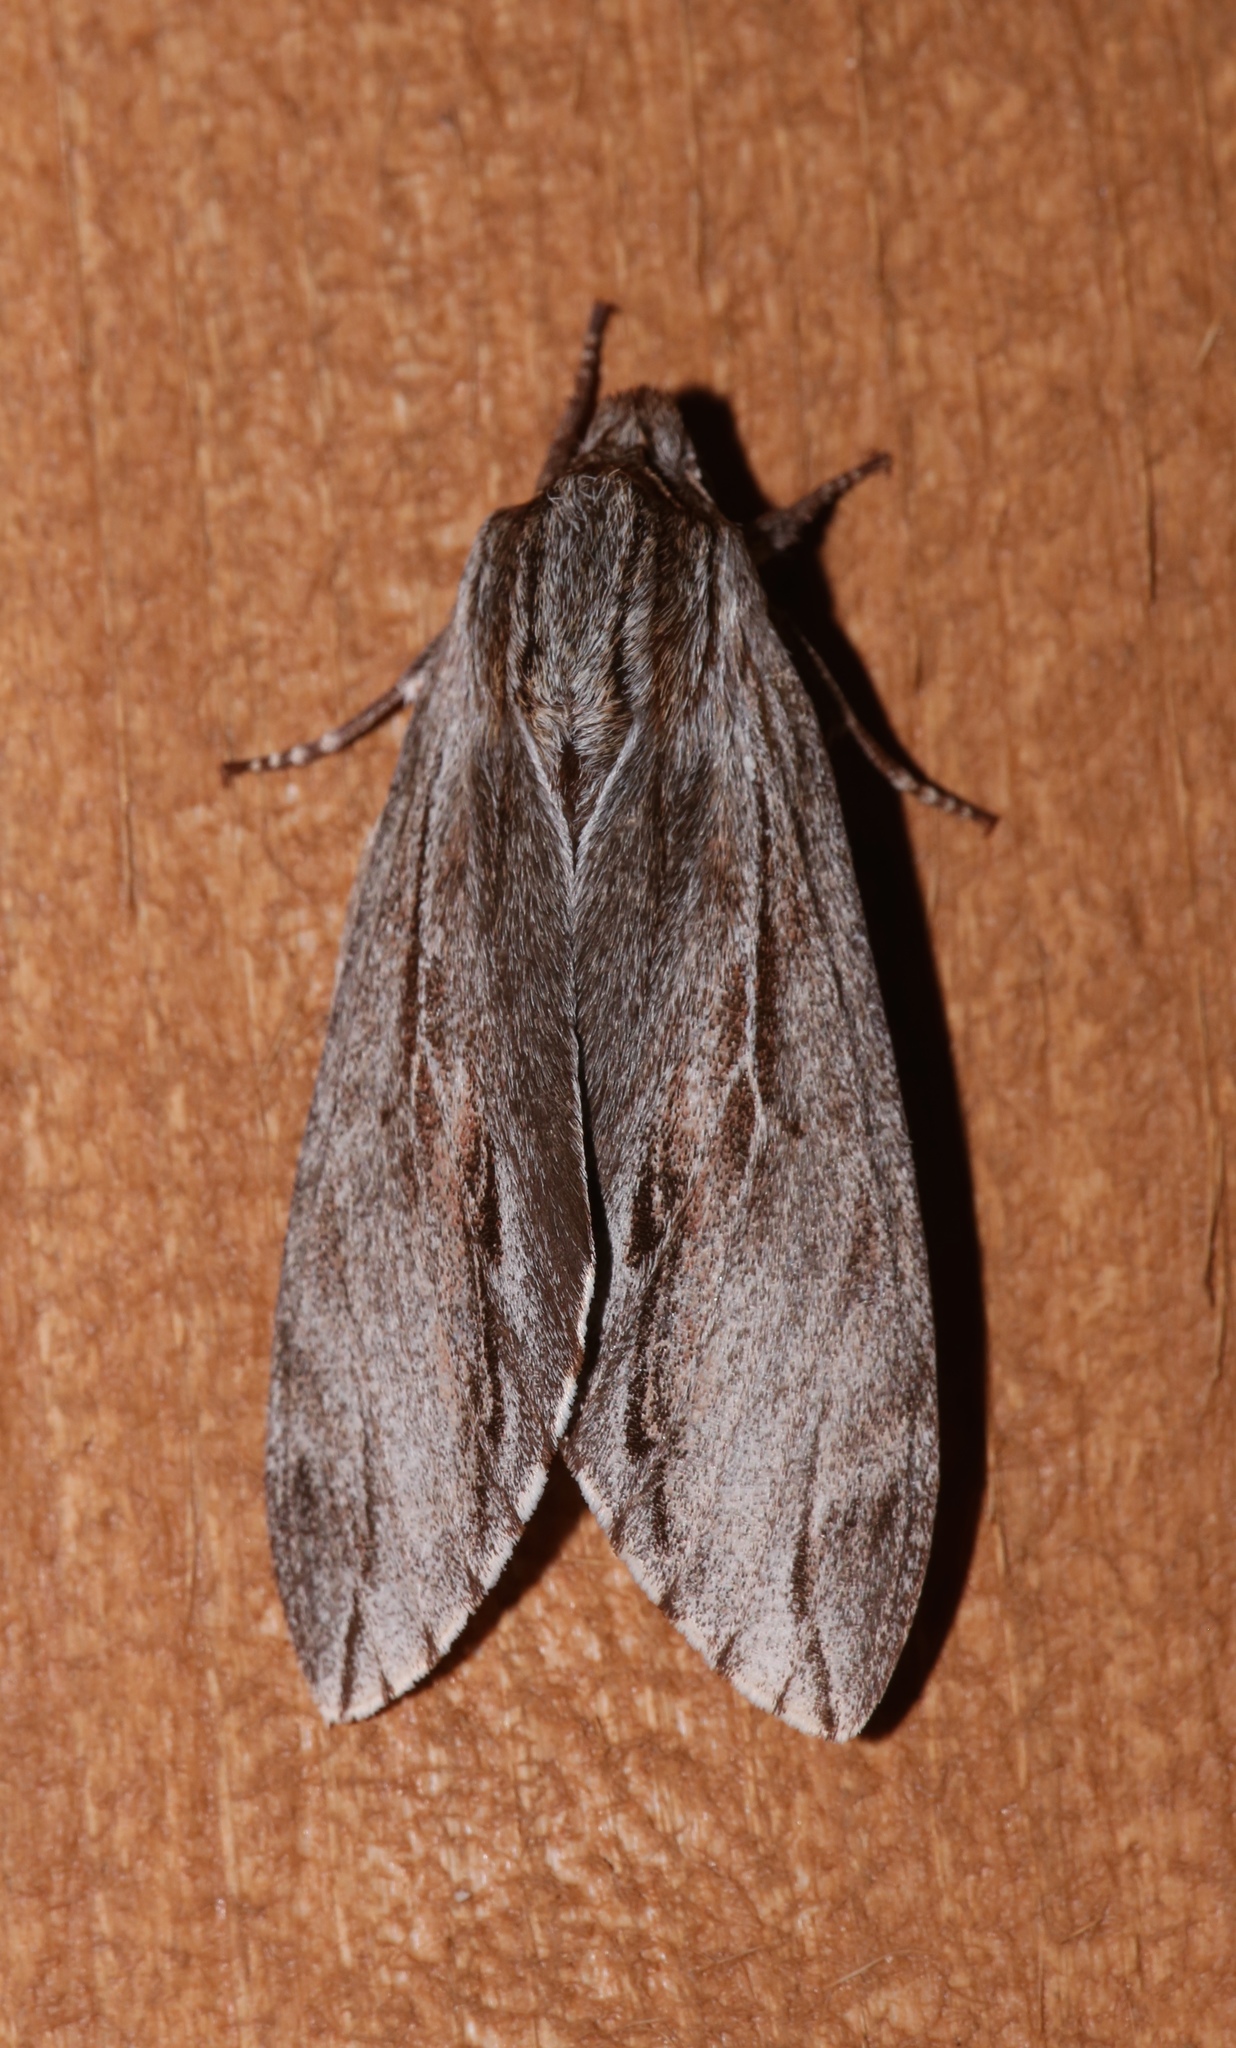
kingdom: Animalia
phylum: Arthropoda
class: Insecta
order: Lepidoptera
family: Sphingidae
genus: Isoparce
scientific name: Isoparce cupressi
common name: Cypress sphinx
